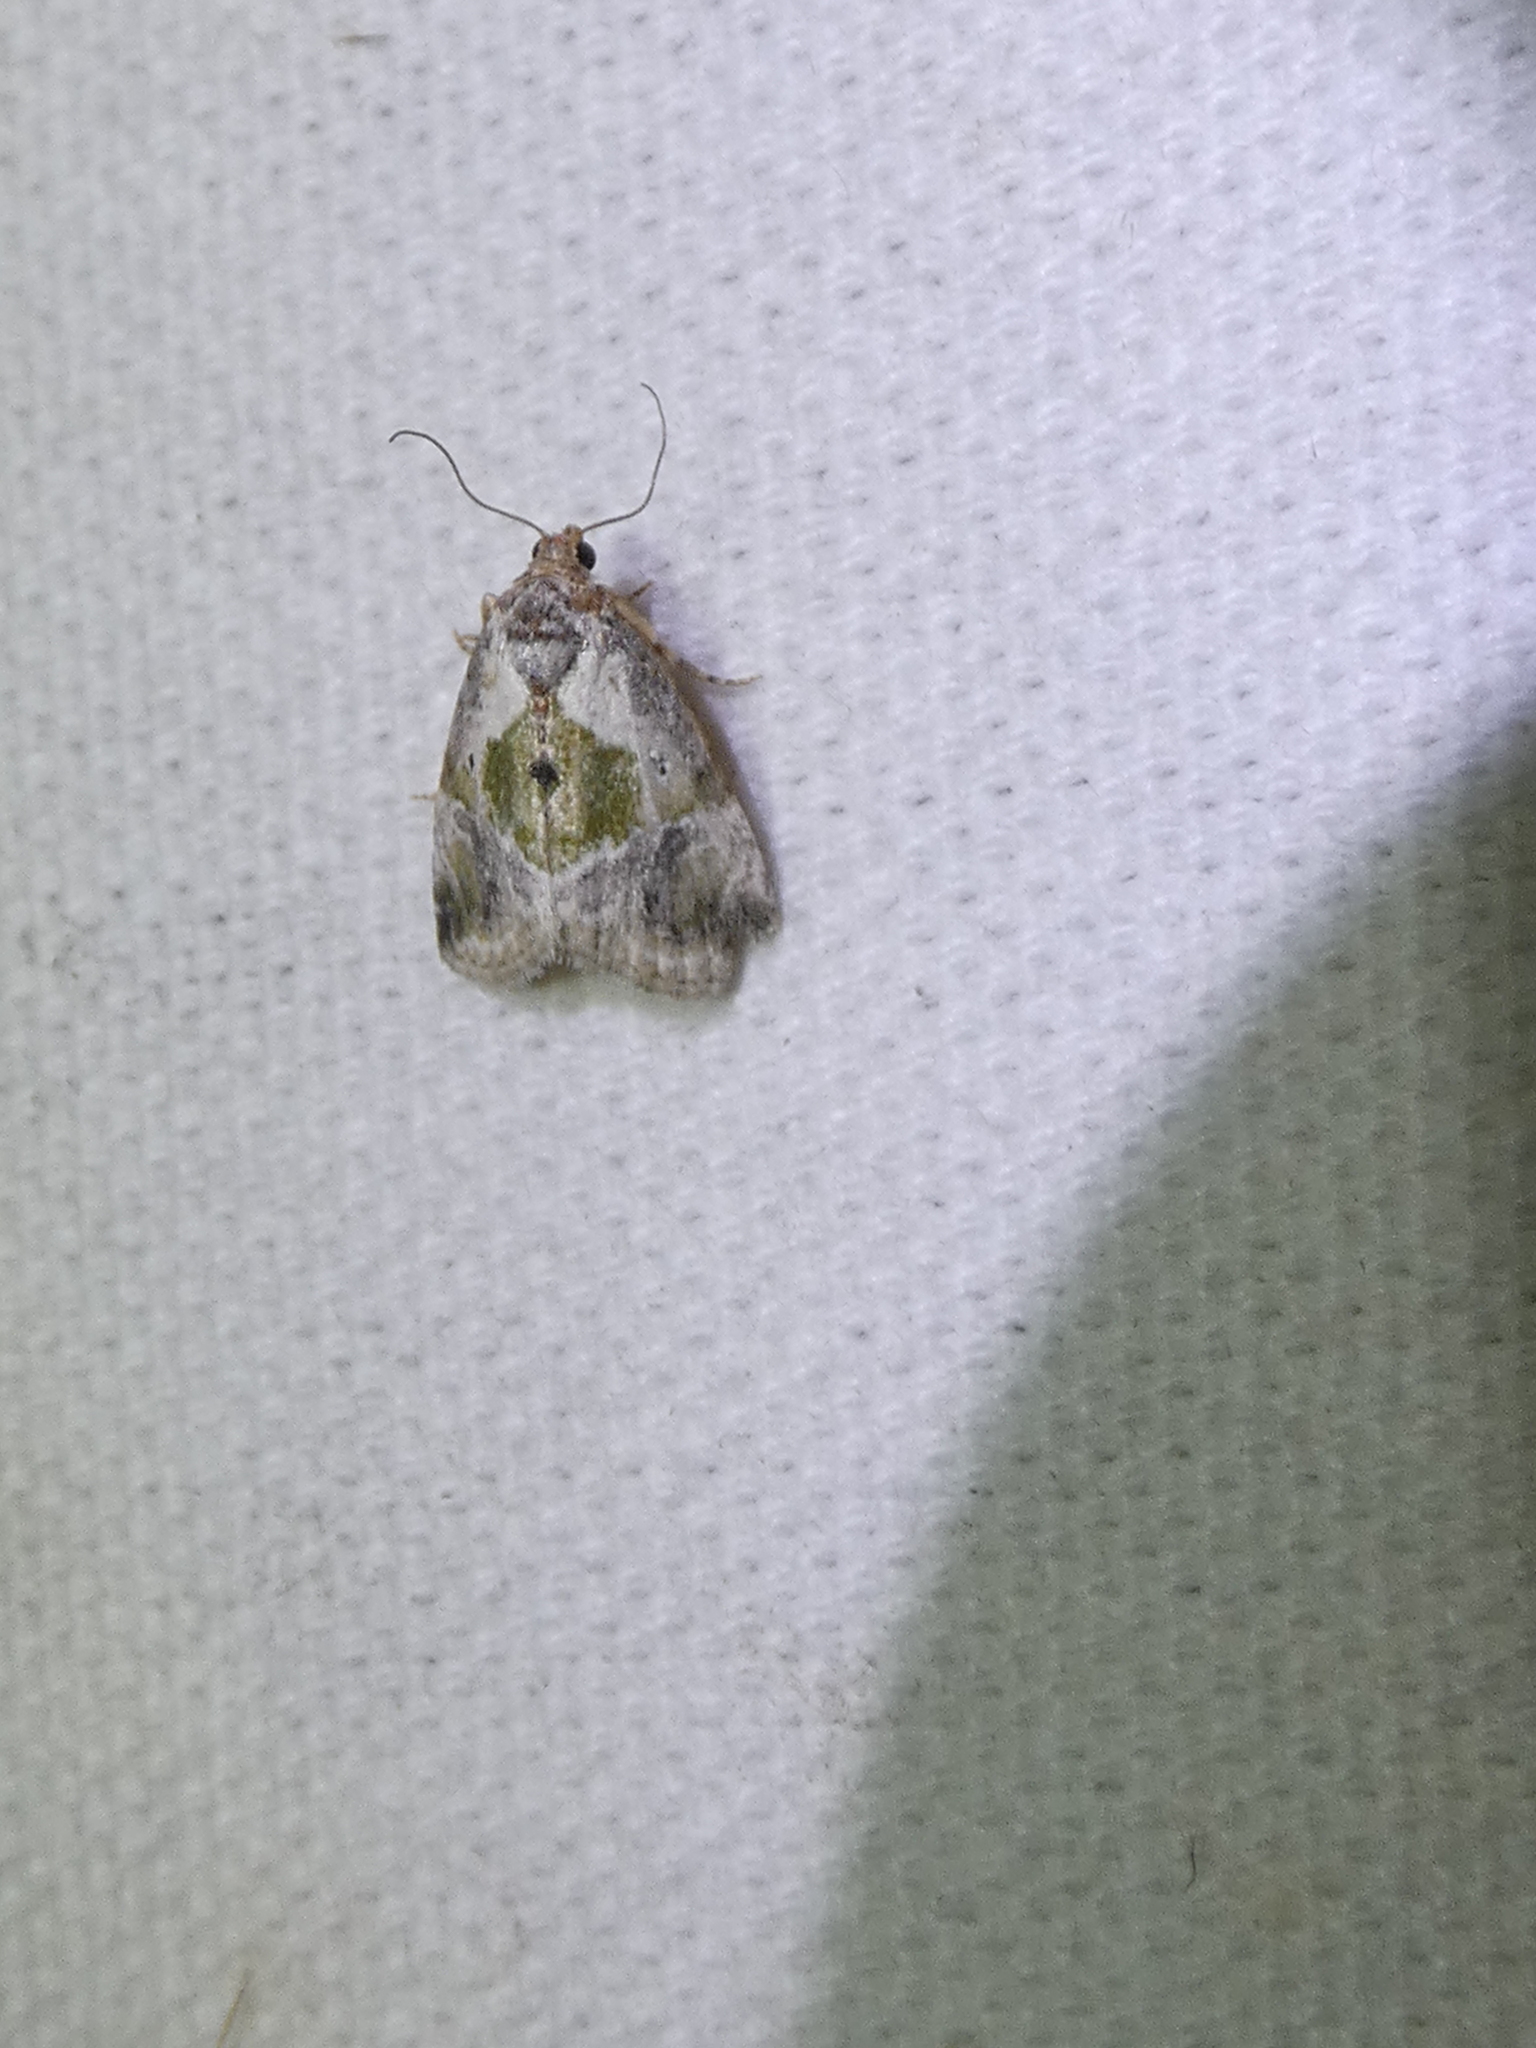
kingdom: Animalia
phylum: Arthropoda
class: Insecta
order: Lepidoptera
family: Noctuidae
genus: Maliattha
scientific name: Maliattha synochitis
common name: Black-dotted glyph
